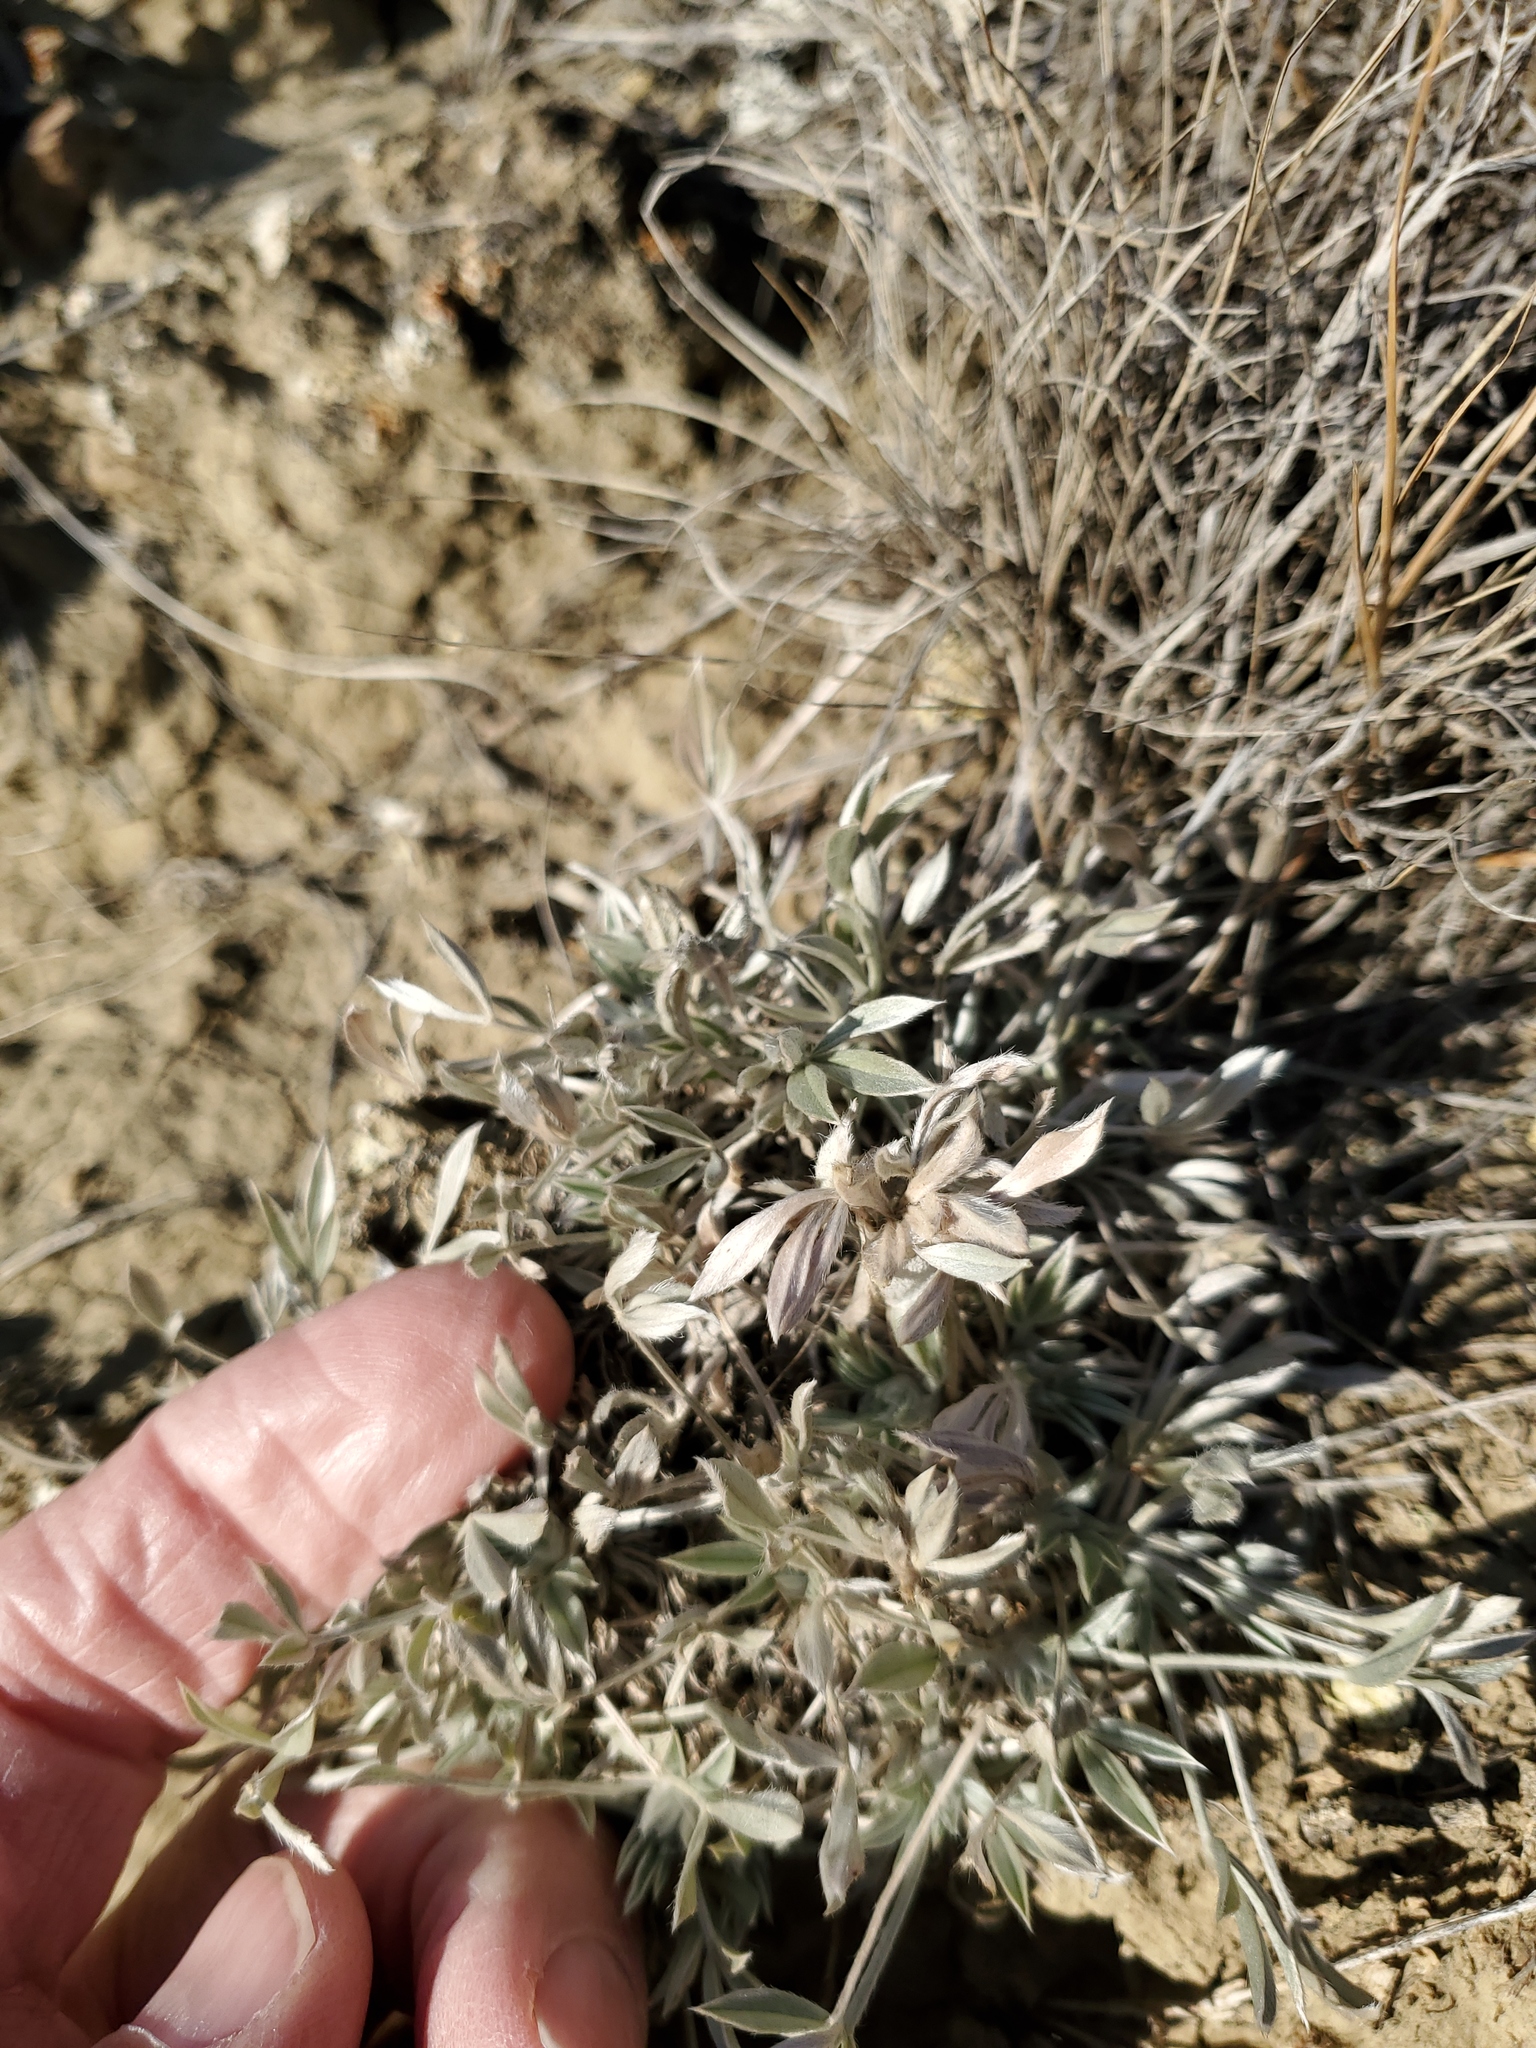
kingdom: Plantae
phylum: Tracheophyta
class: Magnoliopsida
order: Fabales
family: Fabaceae
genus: Astragalus
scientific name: Astragalus gilviflorus
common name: Cushion milk-vetch
